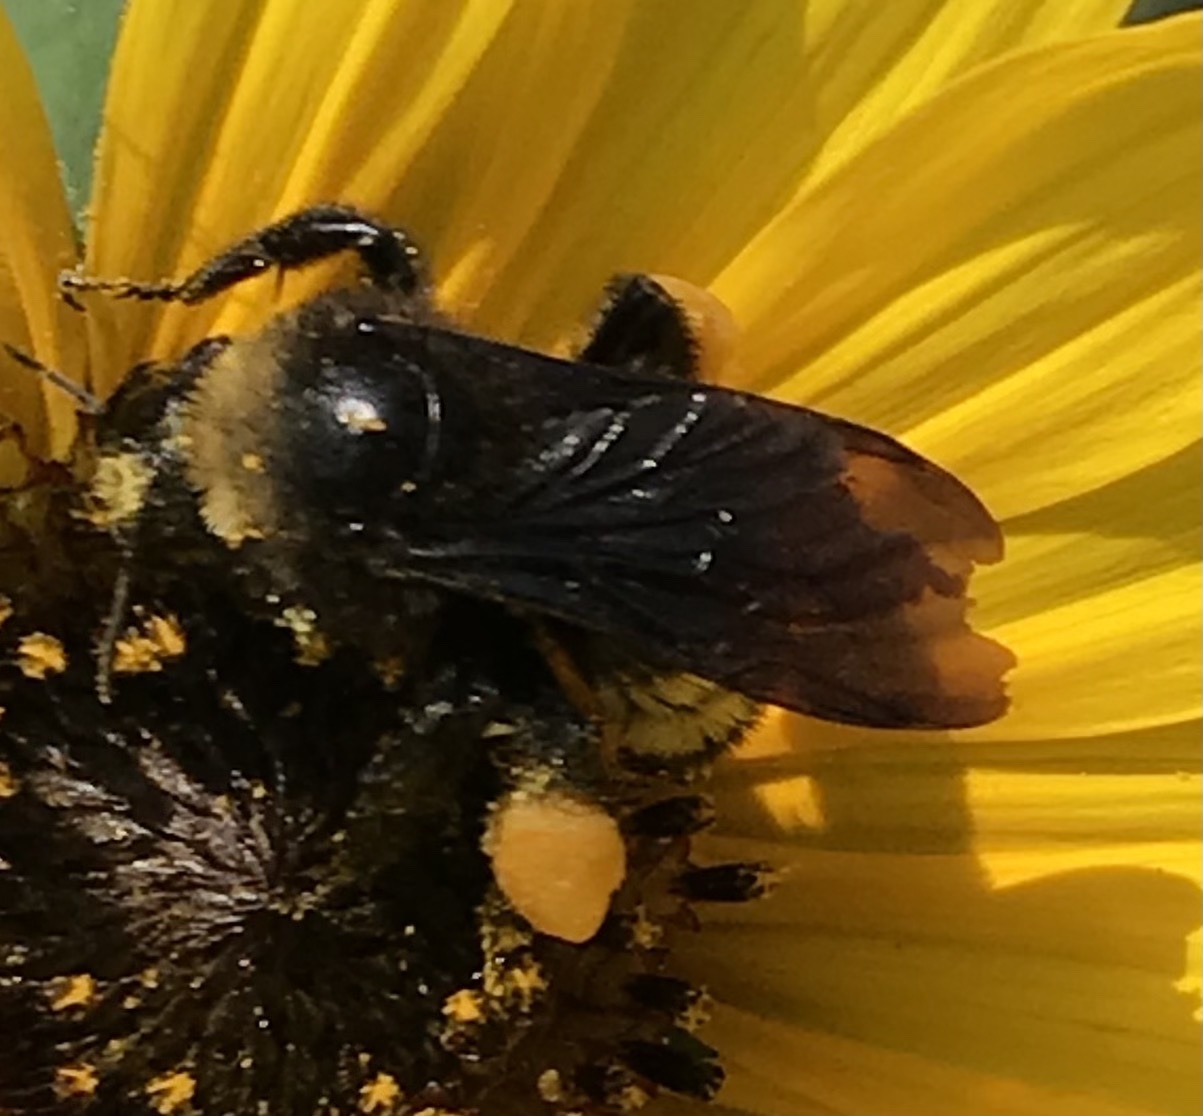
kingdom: Animalia
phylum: Arthropoda
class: Insecta
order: Hymenoptera
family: Apidae
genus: Bombus
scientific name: Bombus pensylvanicus
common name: Bumble bee
